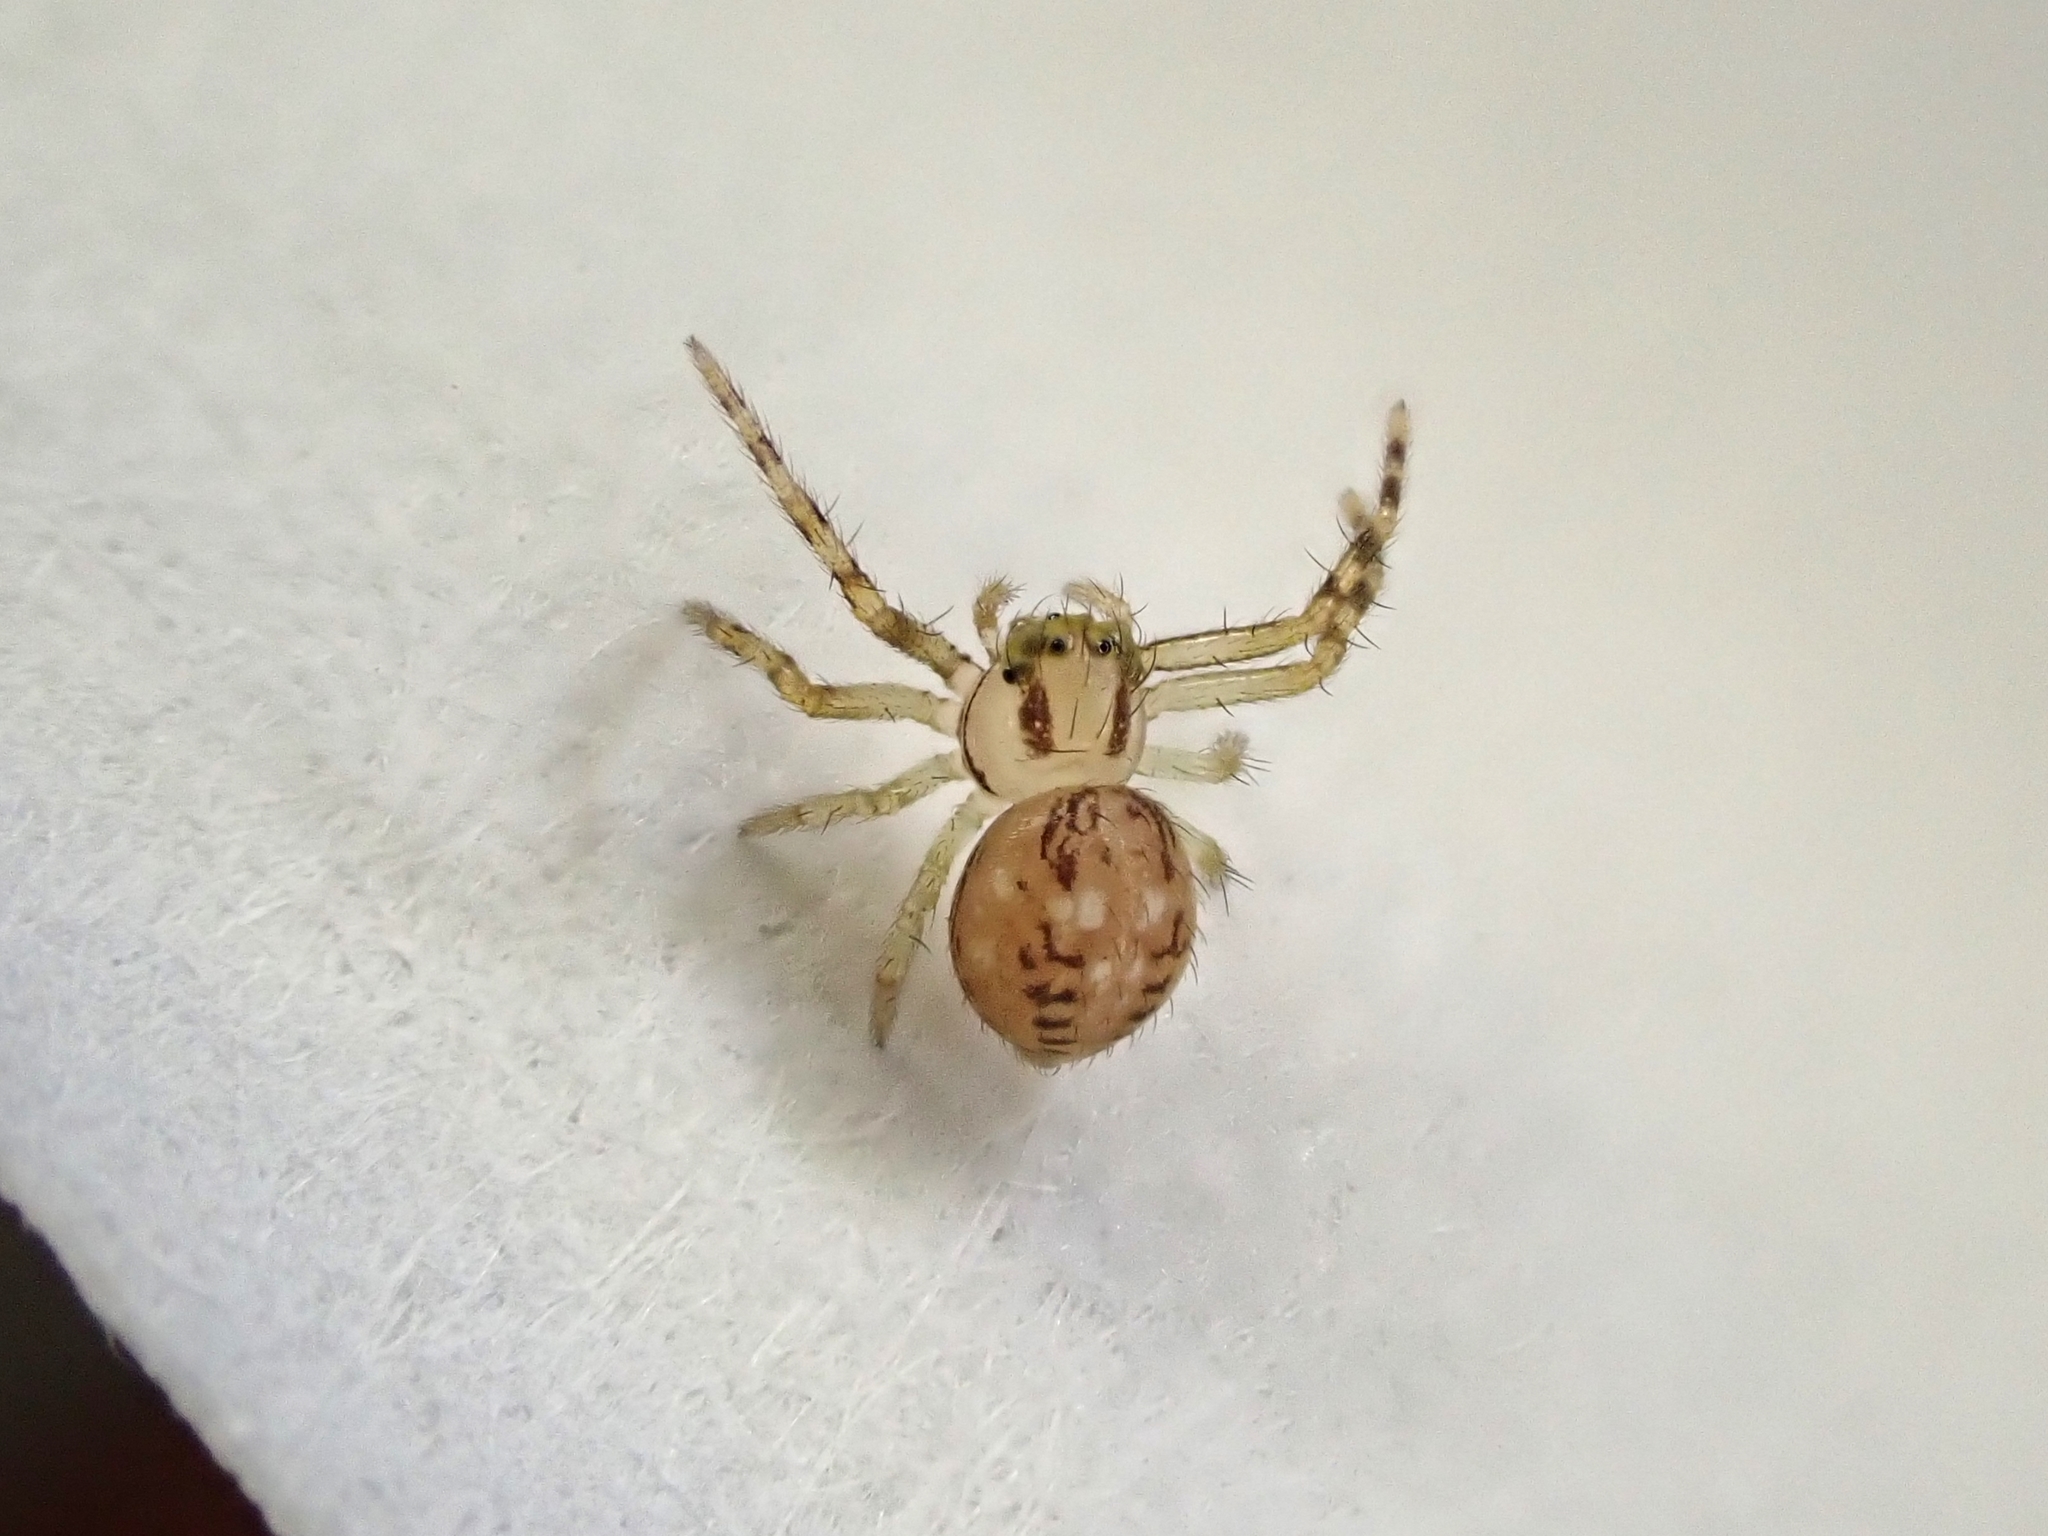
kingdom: Animalia
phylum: Arthropoda
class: Arachnida
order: Araneae
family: Thomisidae
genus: Diaea
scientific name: Diaea ambara
